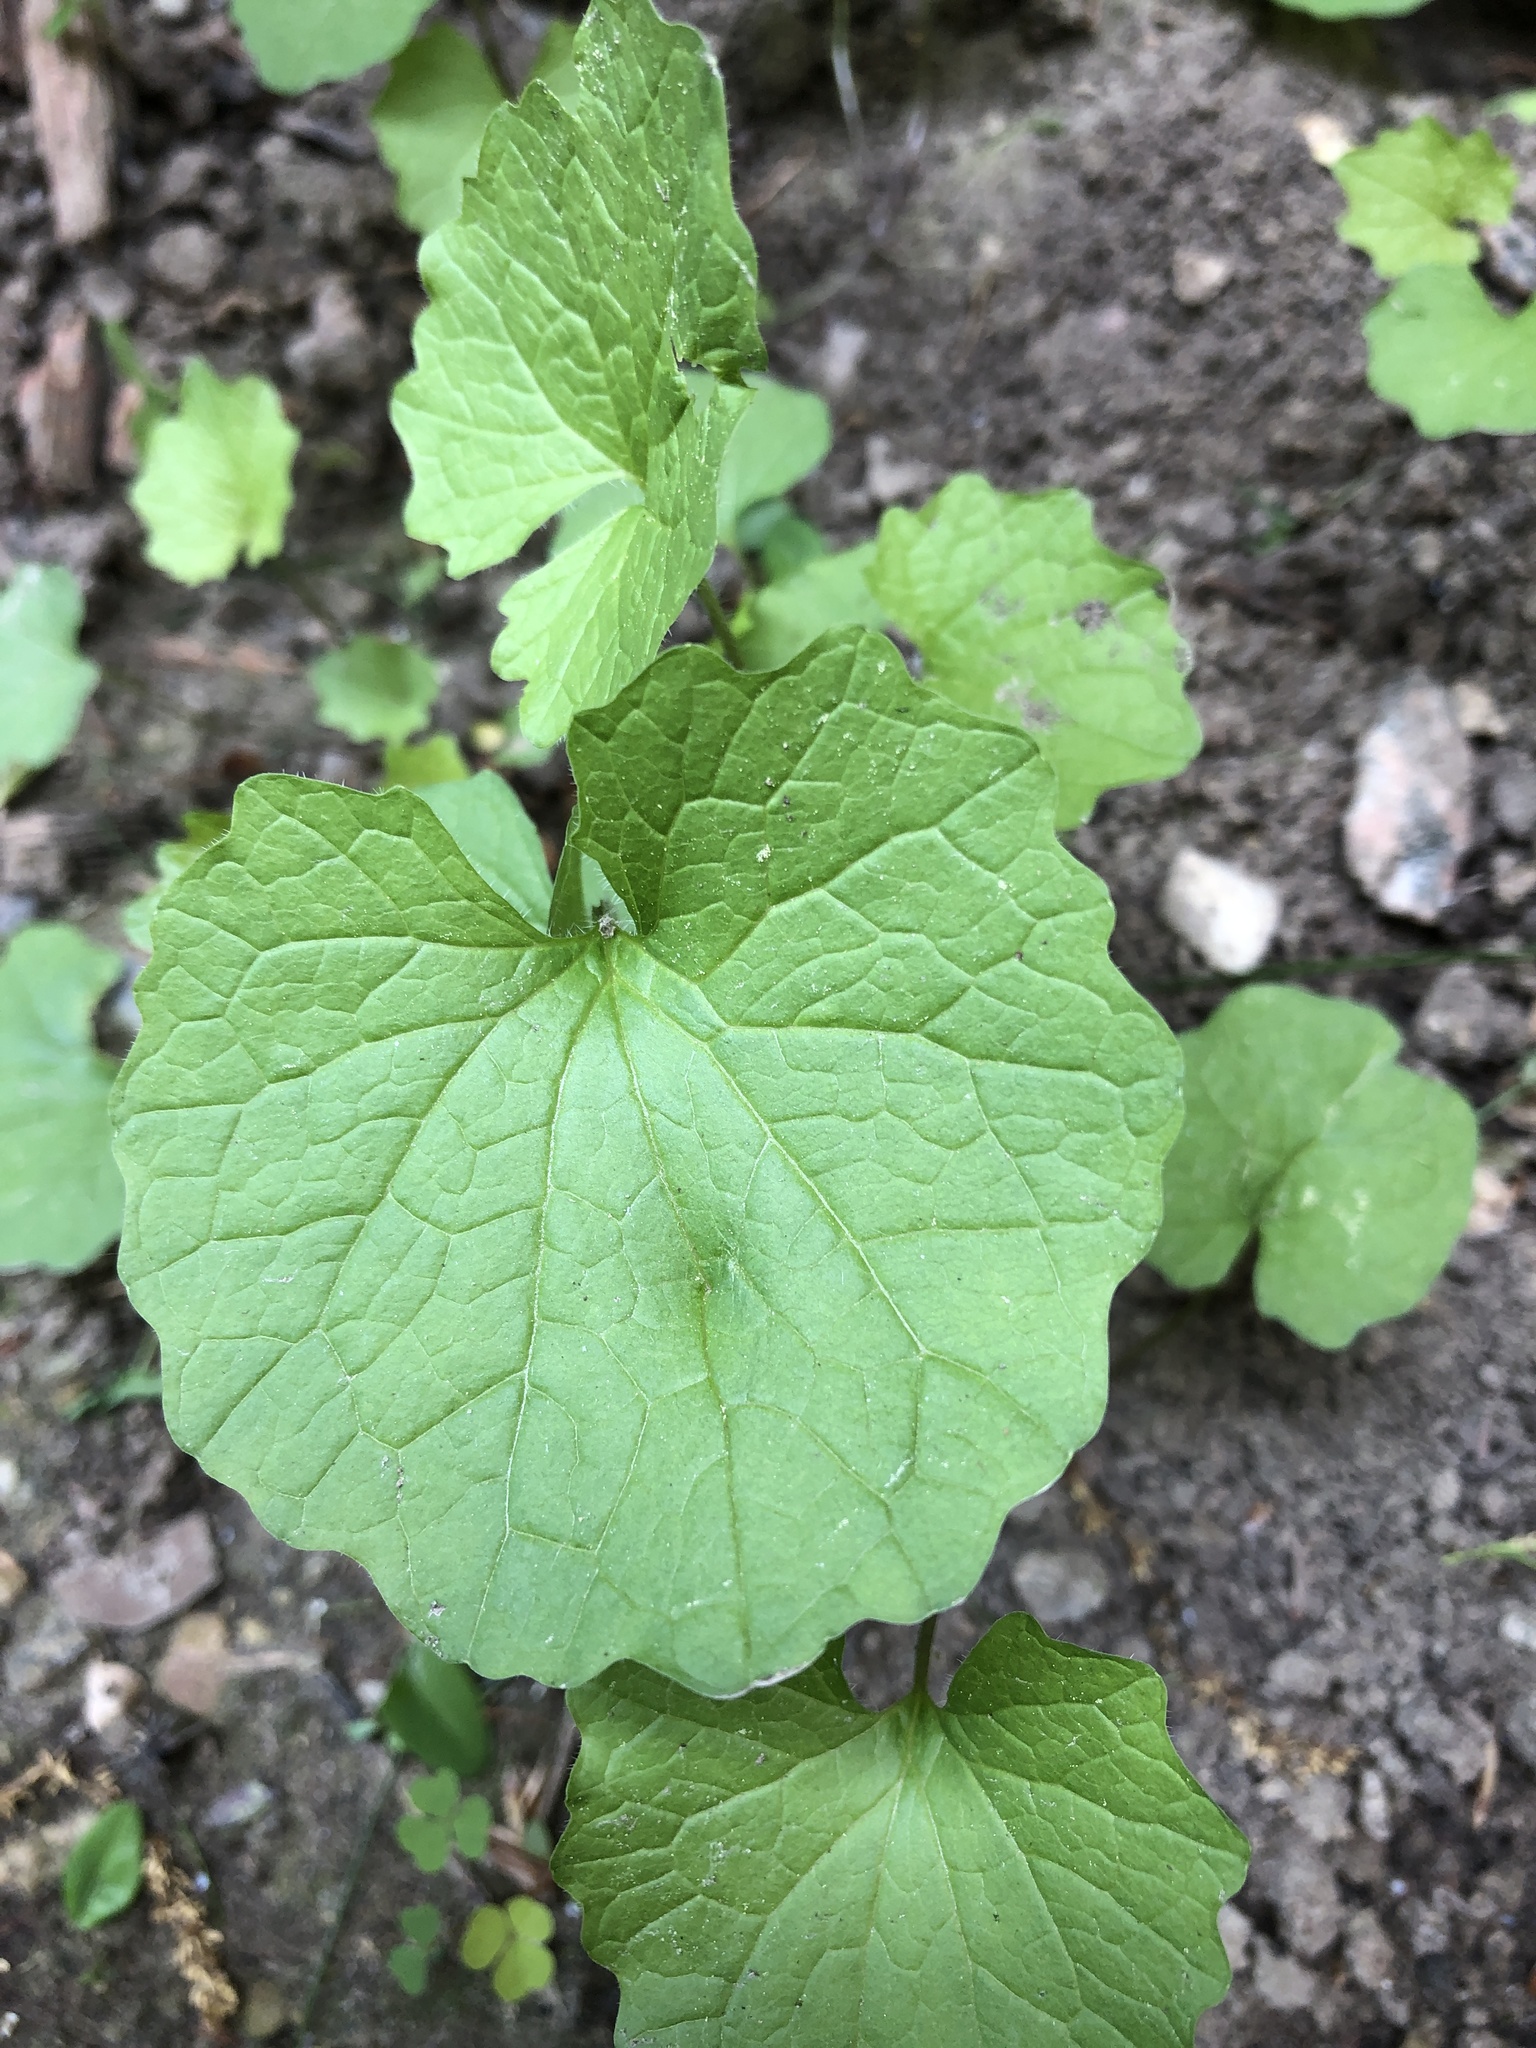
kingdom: Plantae
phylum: Tracheophyta
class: Magnoliopsida
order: Brassicales
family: Brassicaceae
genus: Alliaria
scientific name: Alliaria petiolata
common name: Garlic mustard
